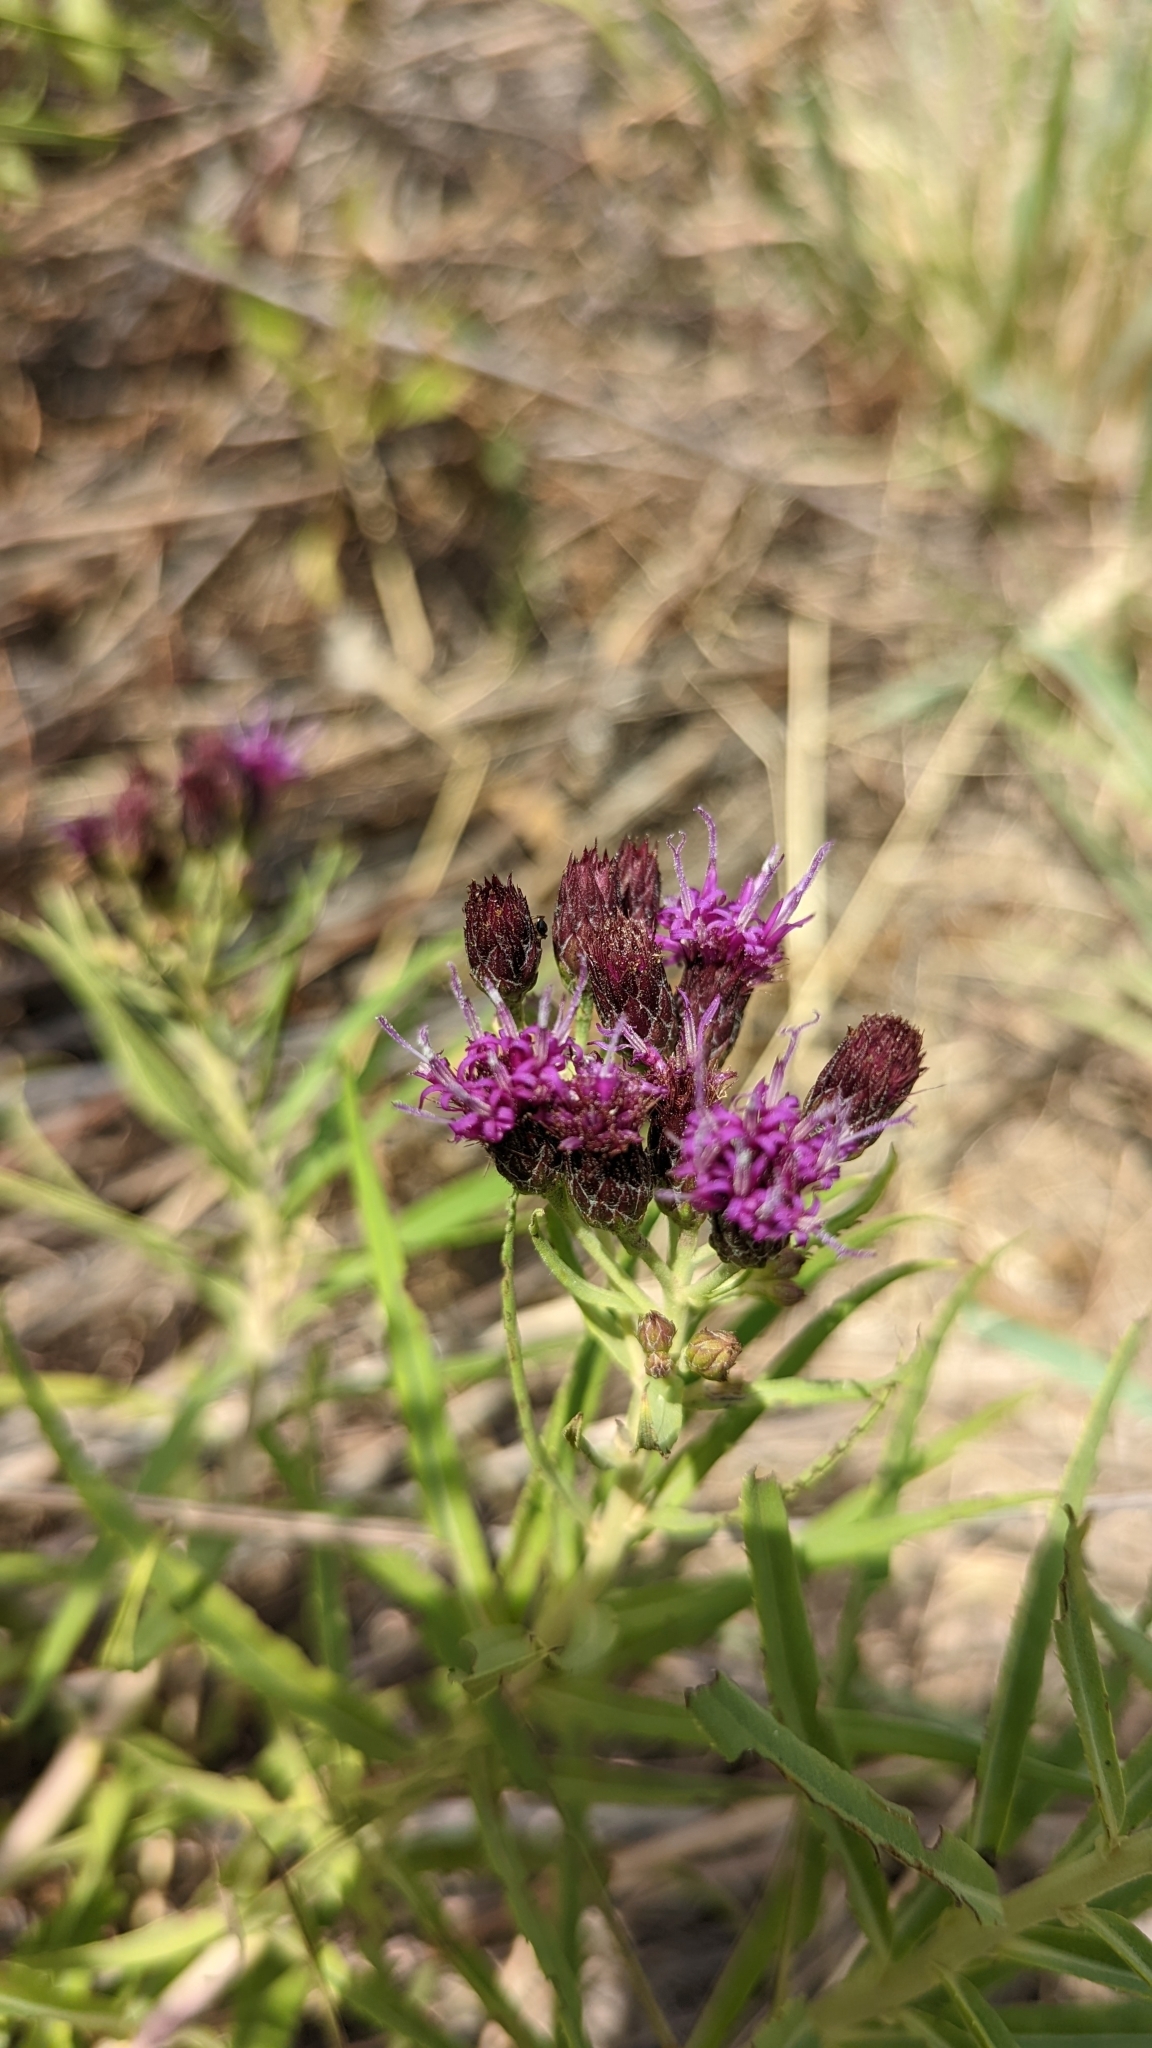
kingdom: Plantae
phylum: Tracheophyta
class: Magnoliopsida
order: Asterales
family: Asteraceae
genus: Vernonia
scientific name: Vernonia marginata
